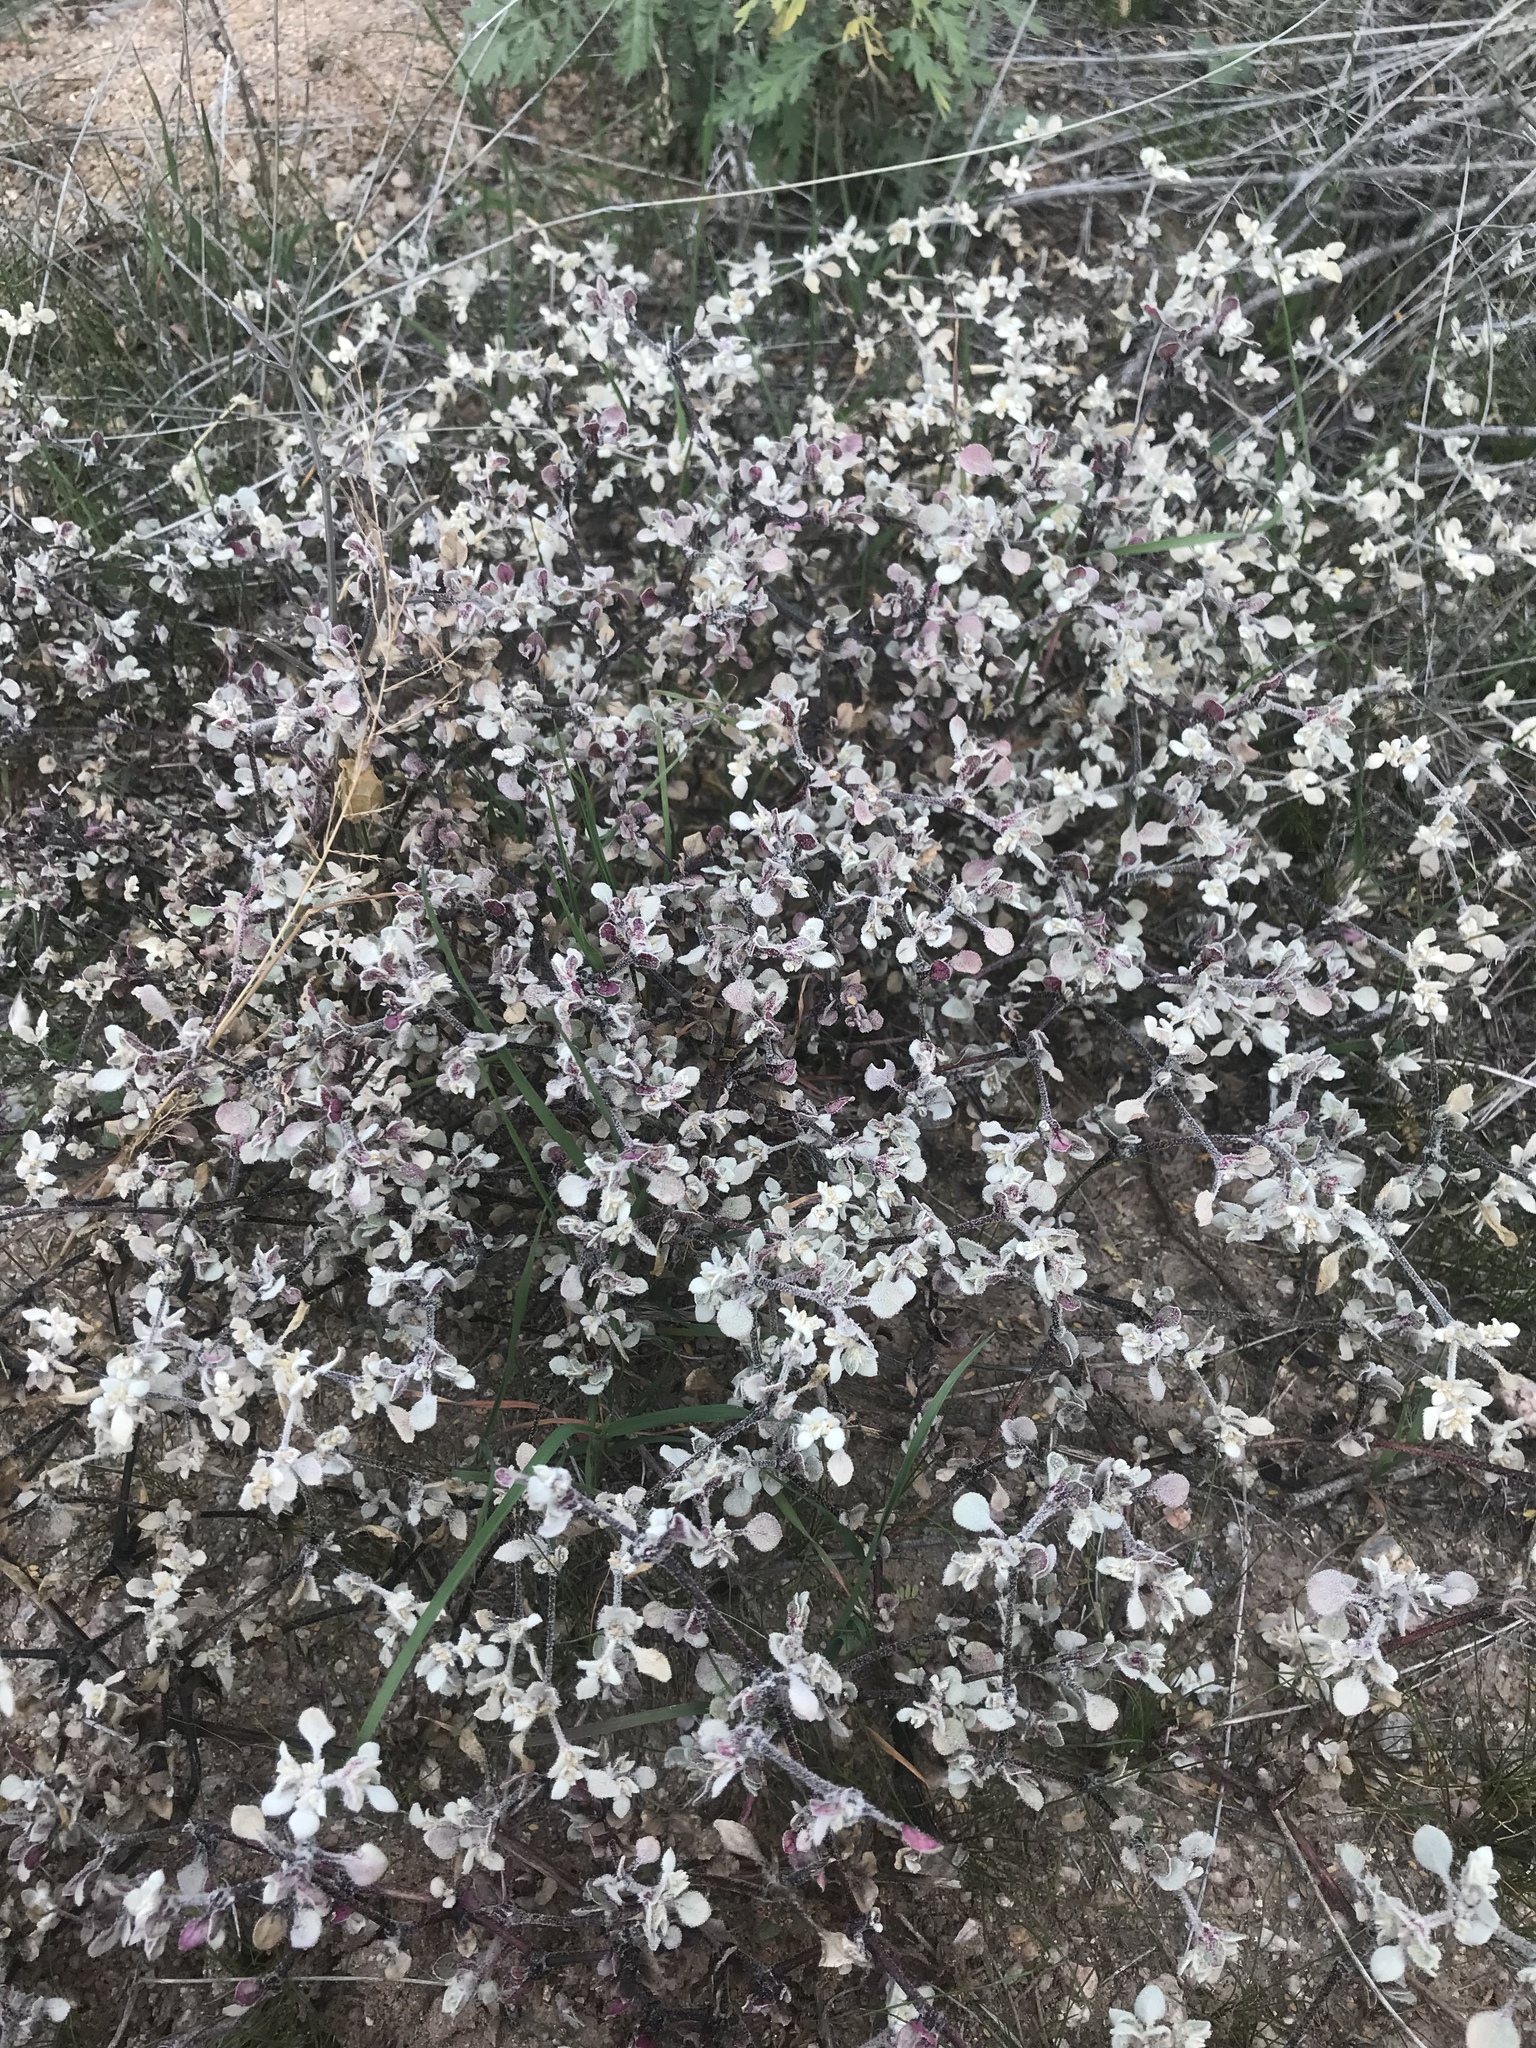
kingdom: Plantae
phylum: Tracheophyta
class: Magnoliopsida
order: Caryophyllales
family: Amaranthaceae
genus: Tidestromia
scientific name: Tidestromia lanuginosa
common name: Woolly tidestromia
